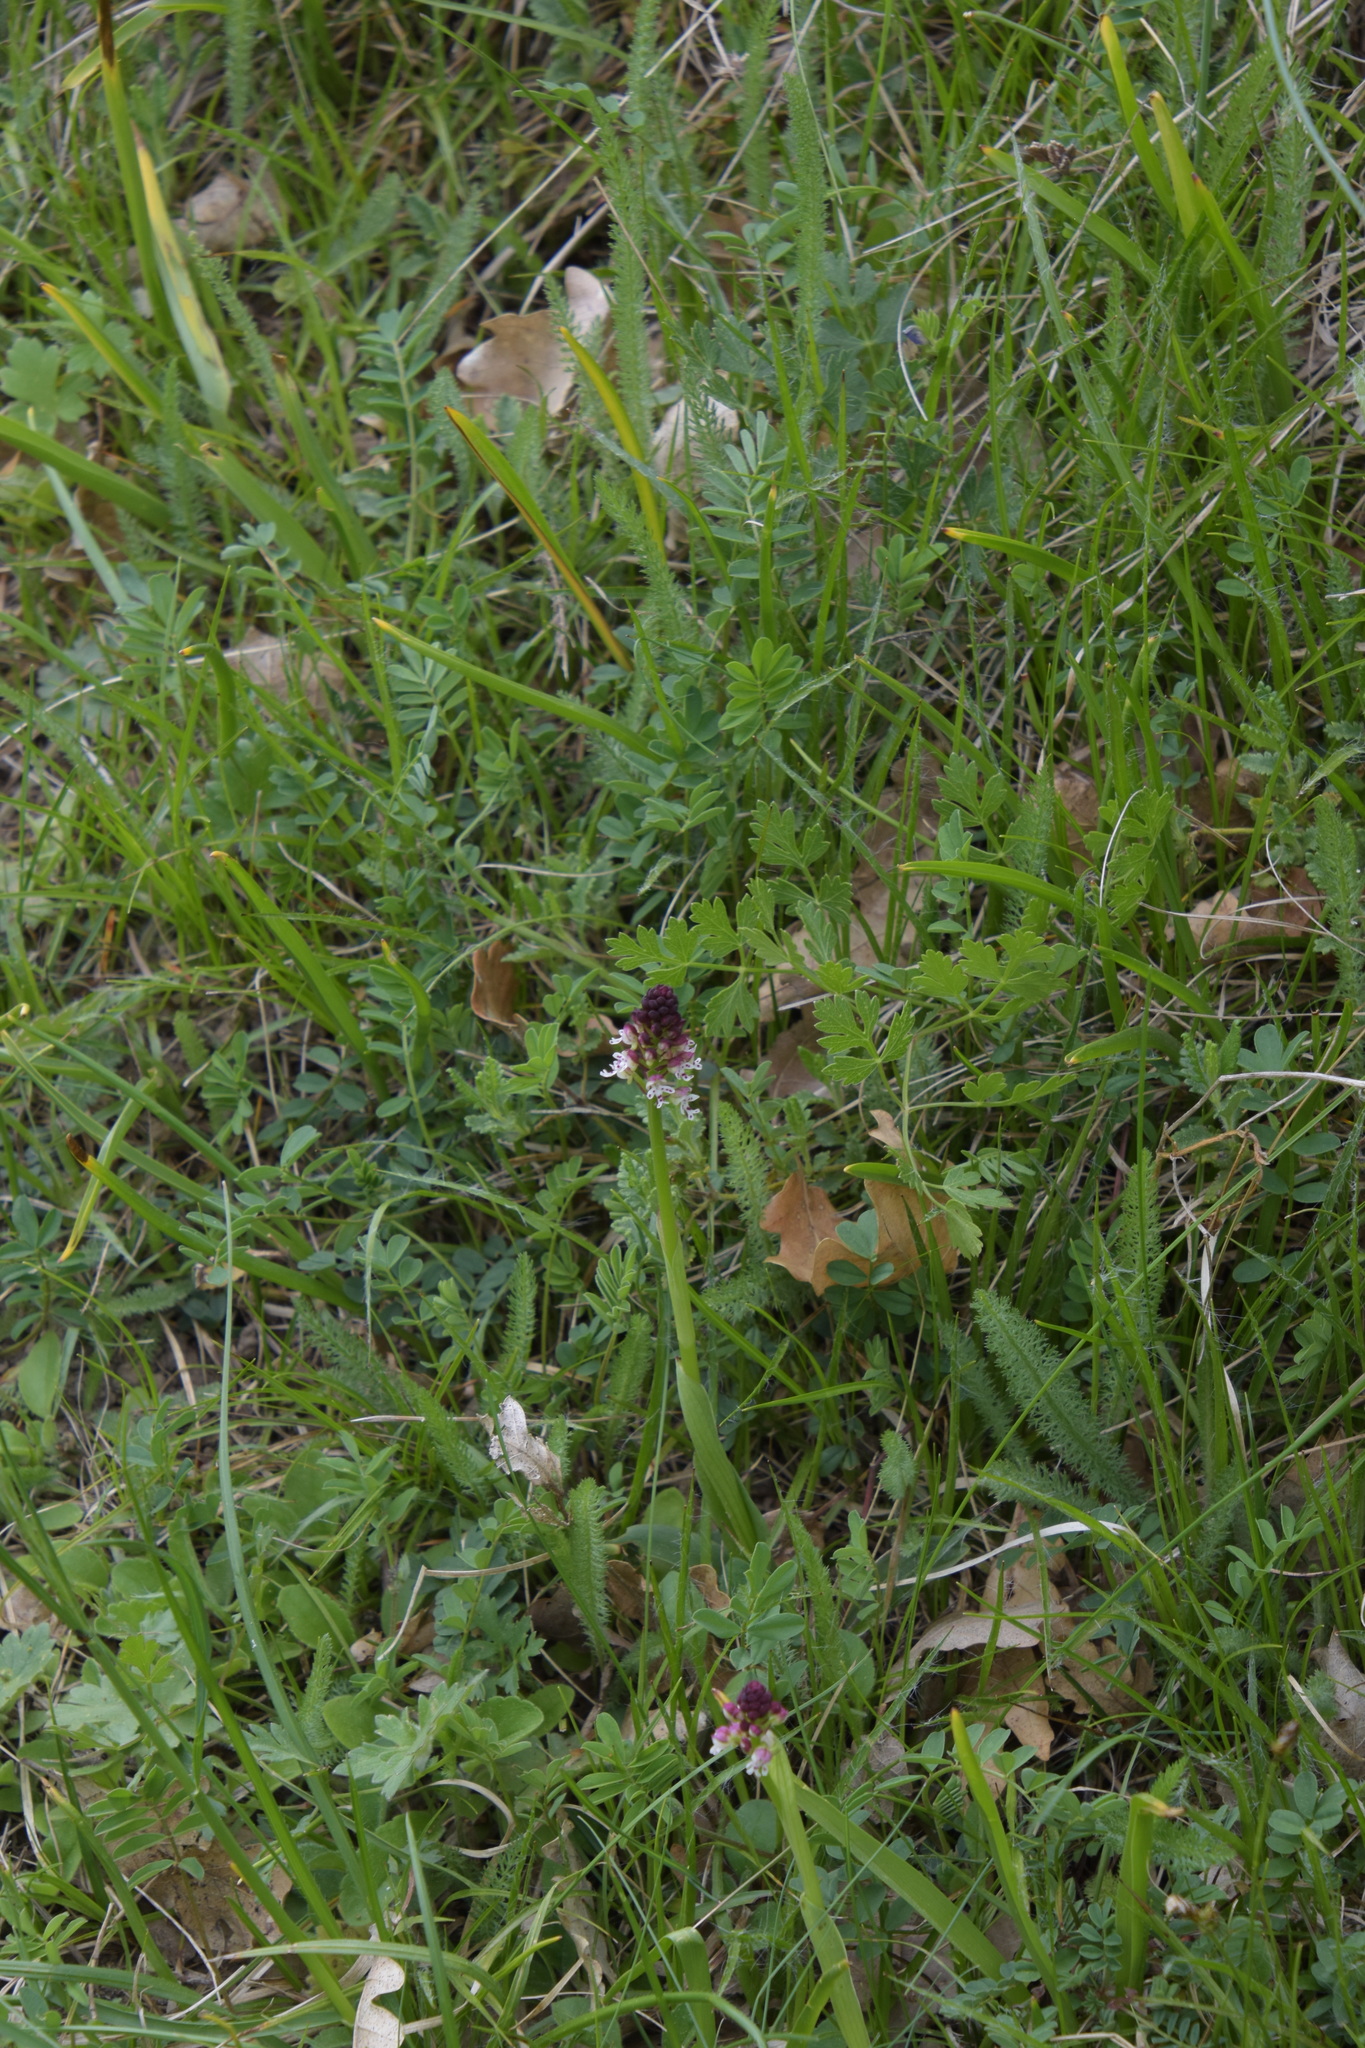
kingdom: Plantae
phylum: Tracheophyta
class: Liliopsida
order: Asparagales
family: Orchidaceae
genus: Neotinea
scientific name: Neotinea ustulata
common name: Burnt orchid
